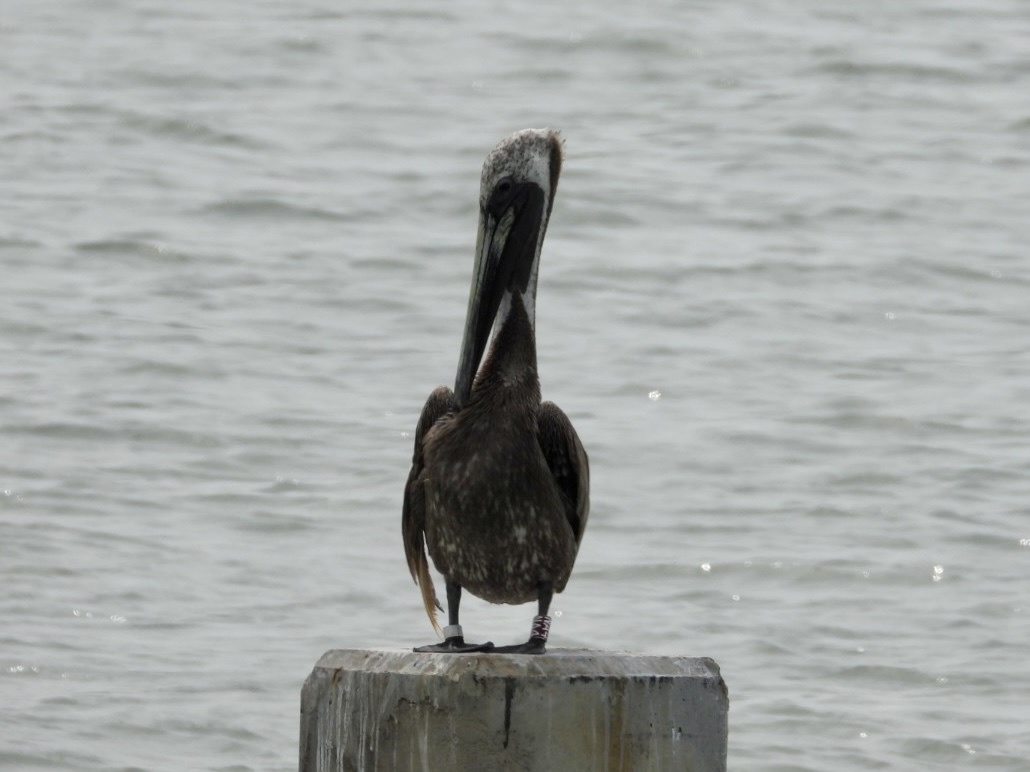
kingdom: Animalia
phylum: Chordata
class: Aves
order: Pelecaniformes
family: Pelecanidae
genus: Pelecanus
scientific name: Pelecanus occidentalis
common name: Brown pelican
